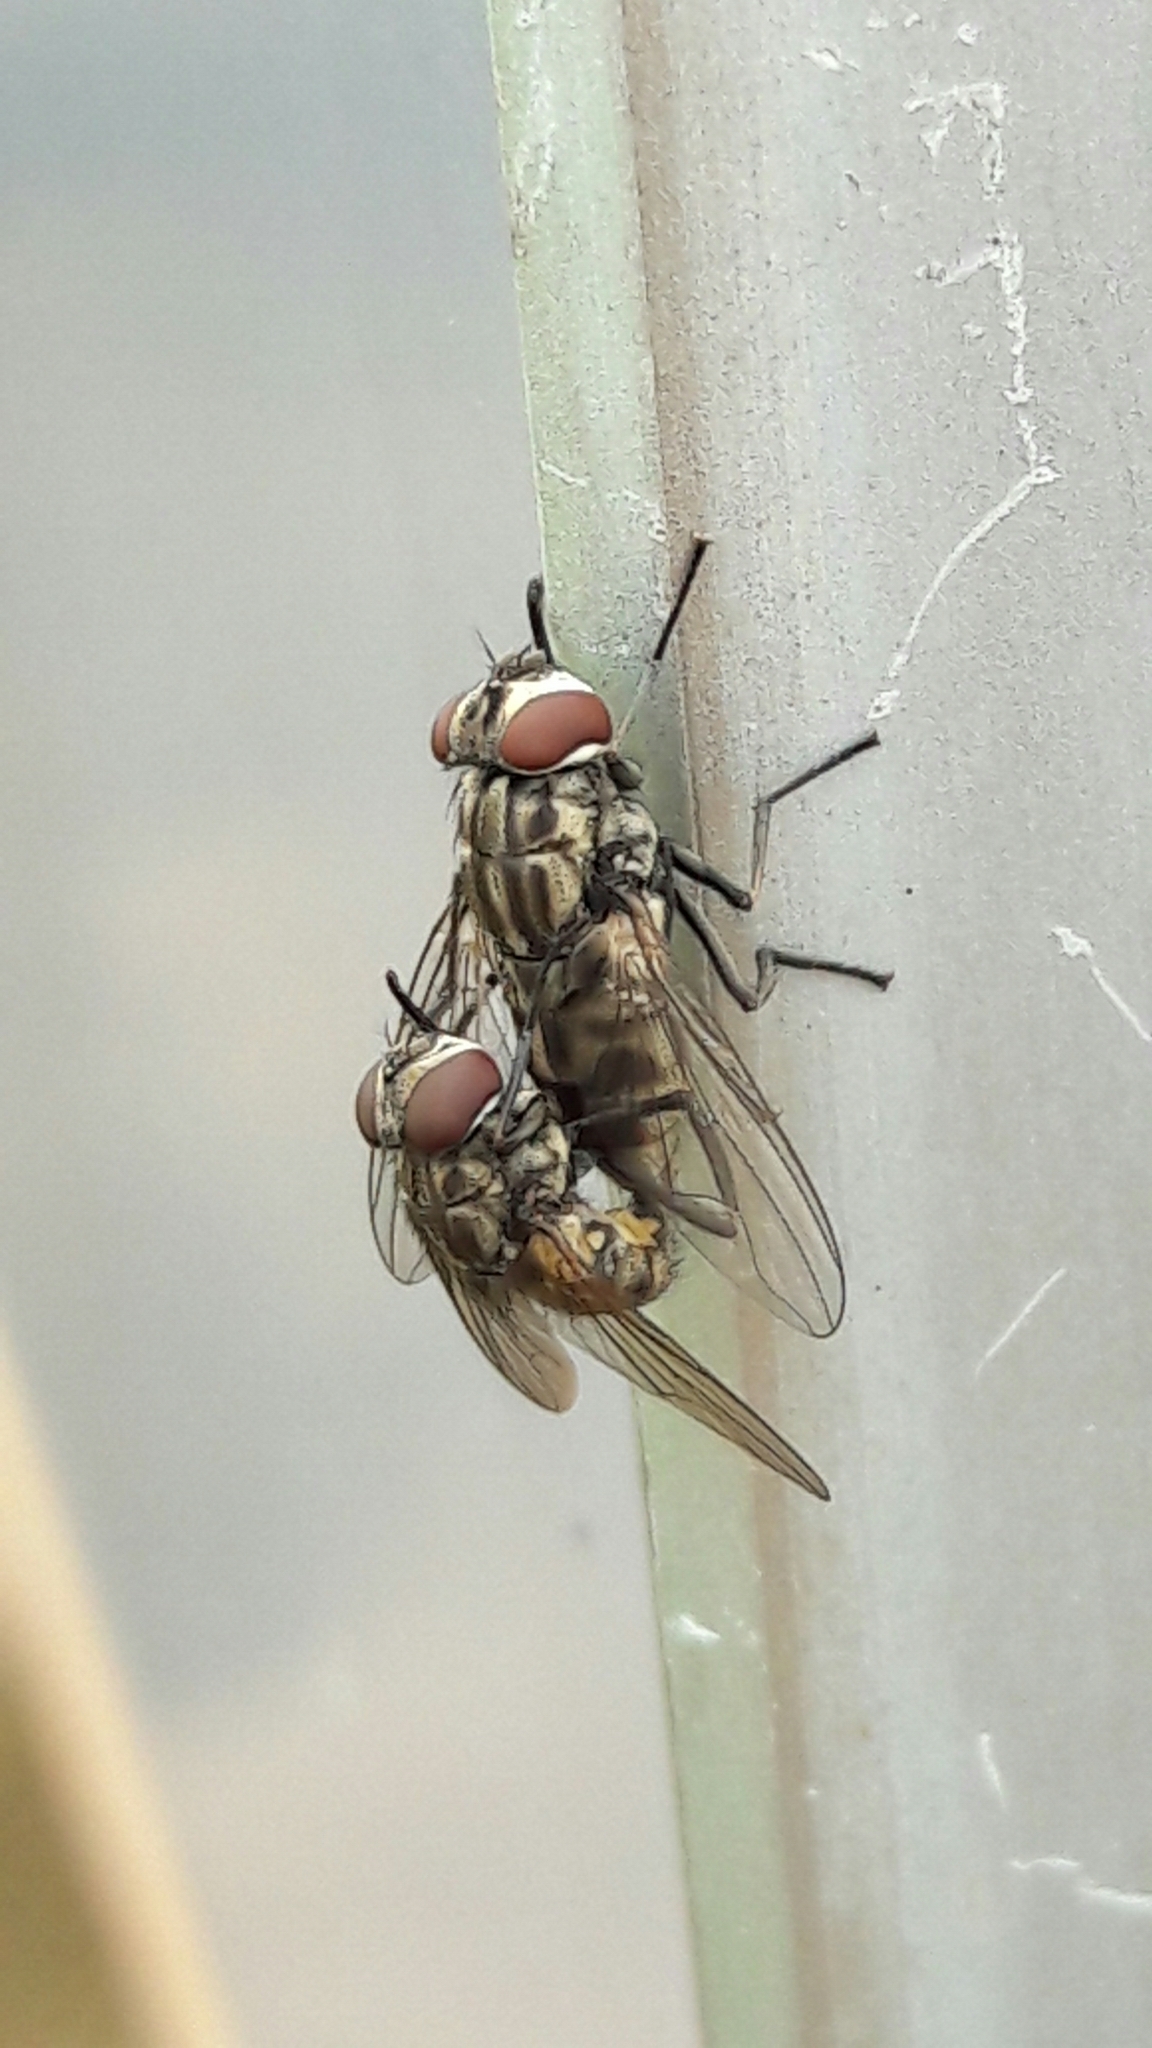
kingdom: Animalia
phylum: Arthropoda
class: Insecta
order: Diptera
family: Muscidae
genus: Stomoxys
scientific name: Stomoxys calcitrans
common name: Stable fly
